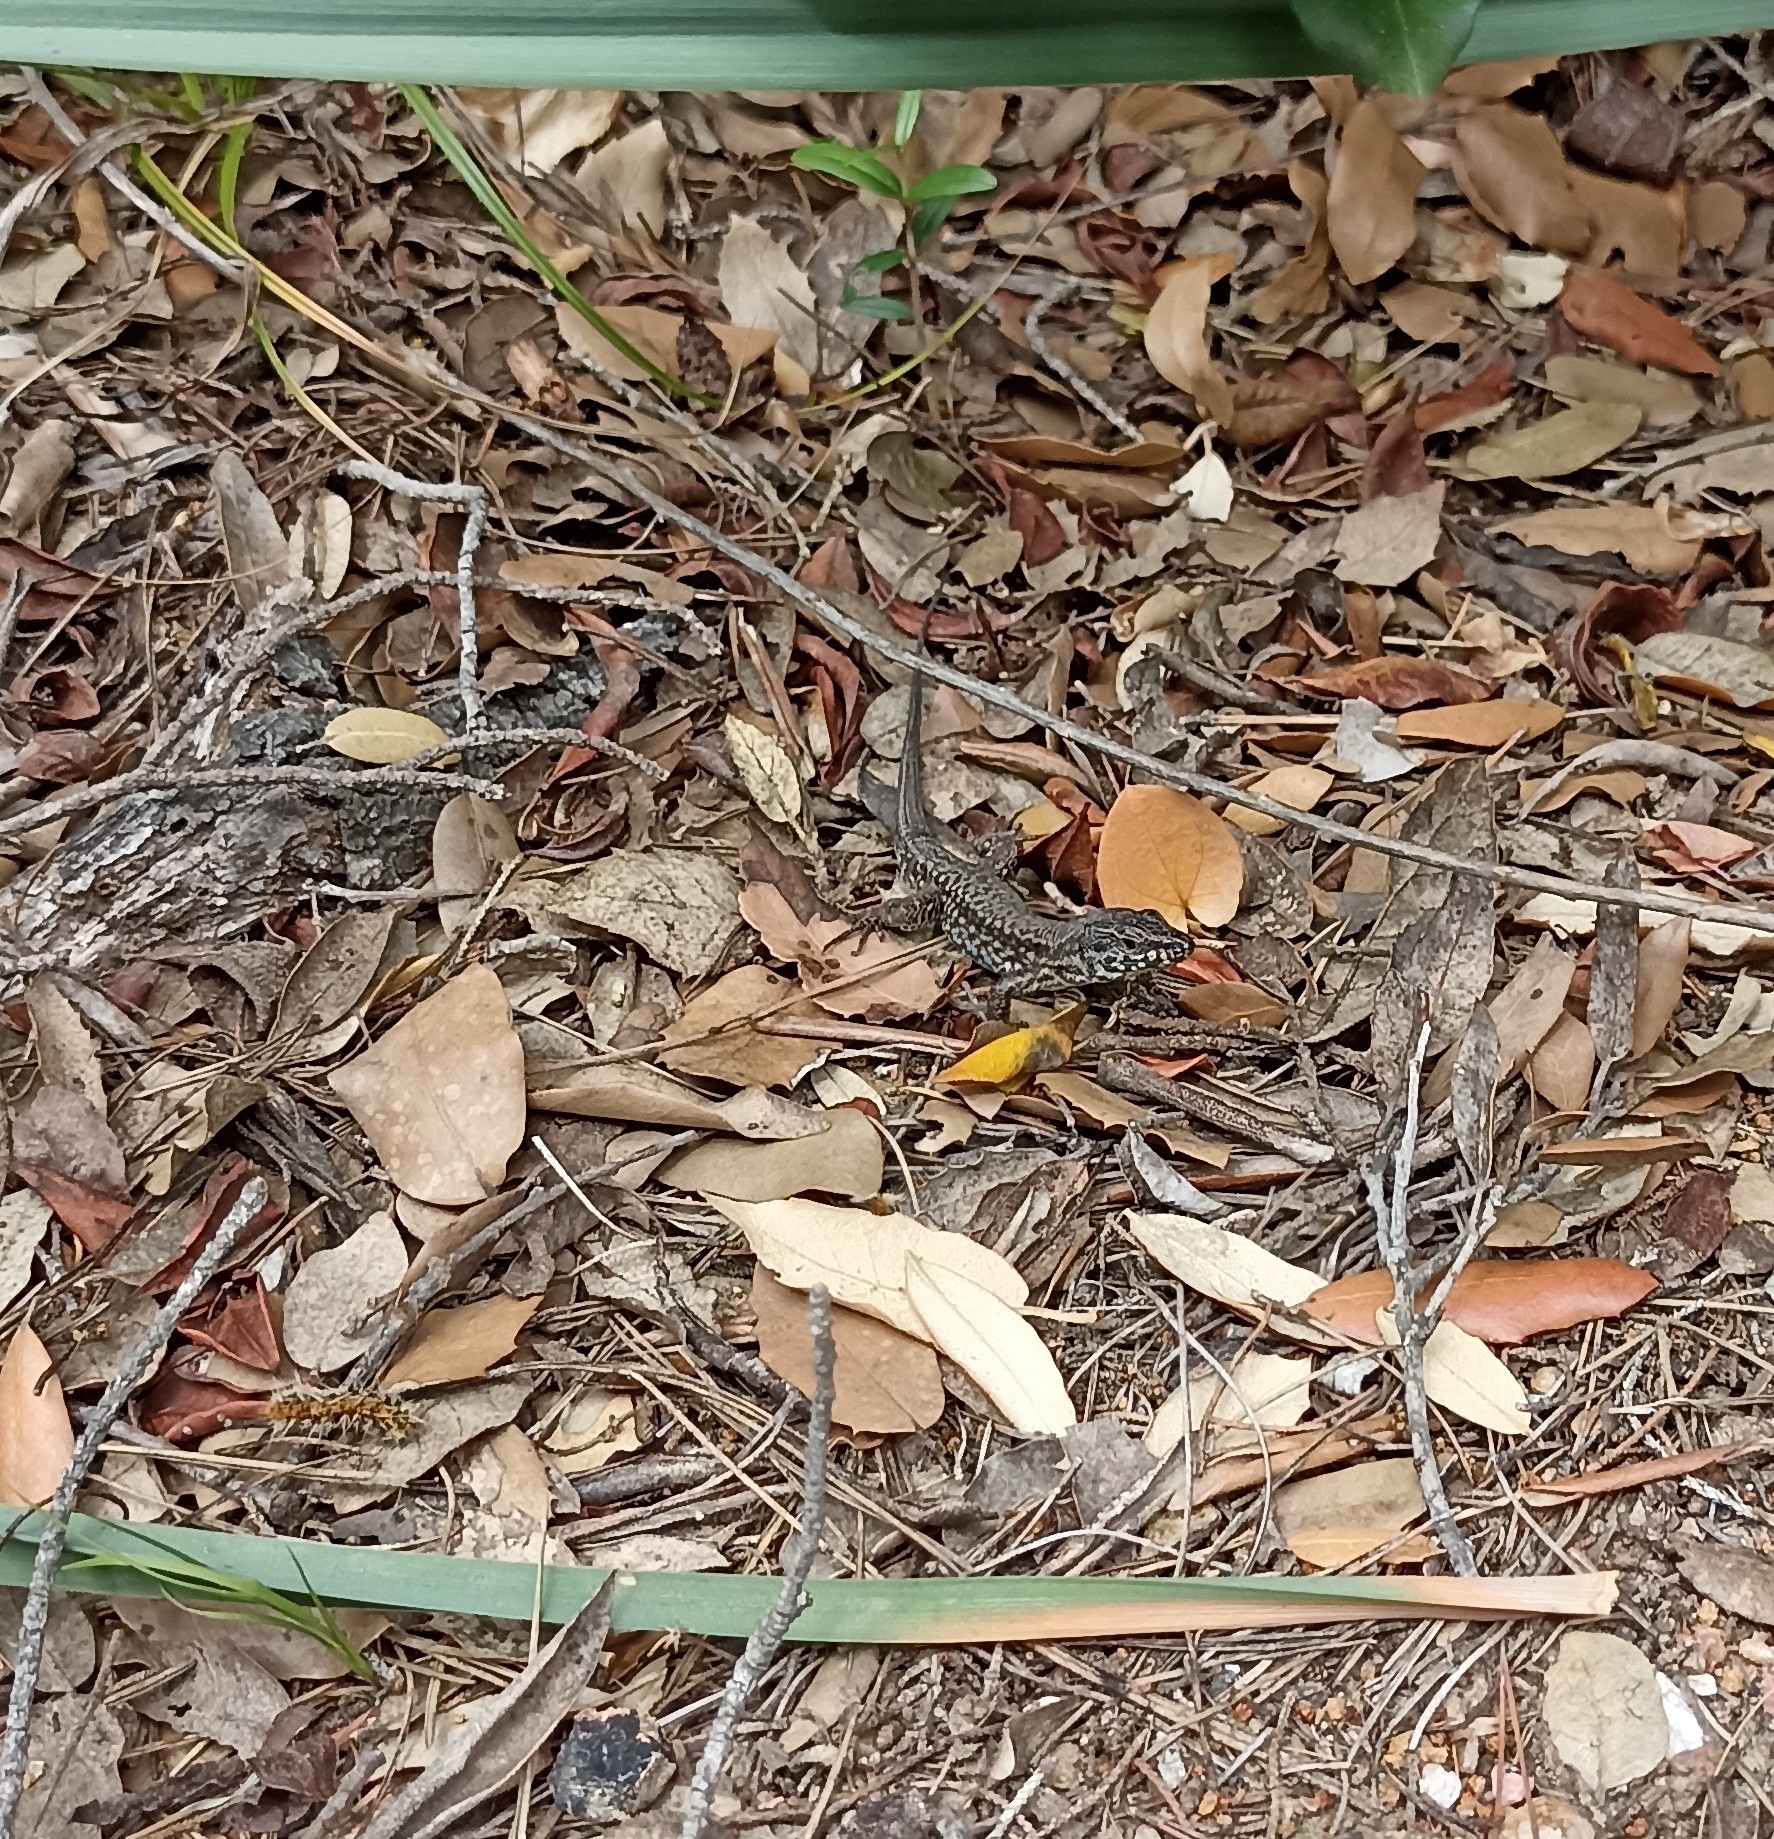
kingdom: Animalia
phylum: Chordata
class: Squamata
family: Lacertidae
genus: Podarcis
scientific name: Podarcis muralis
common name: Common wall lizard
